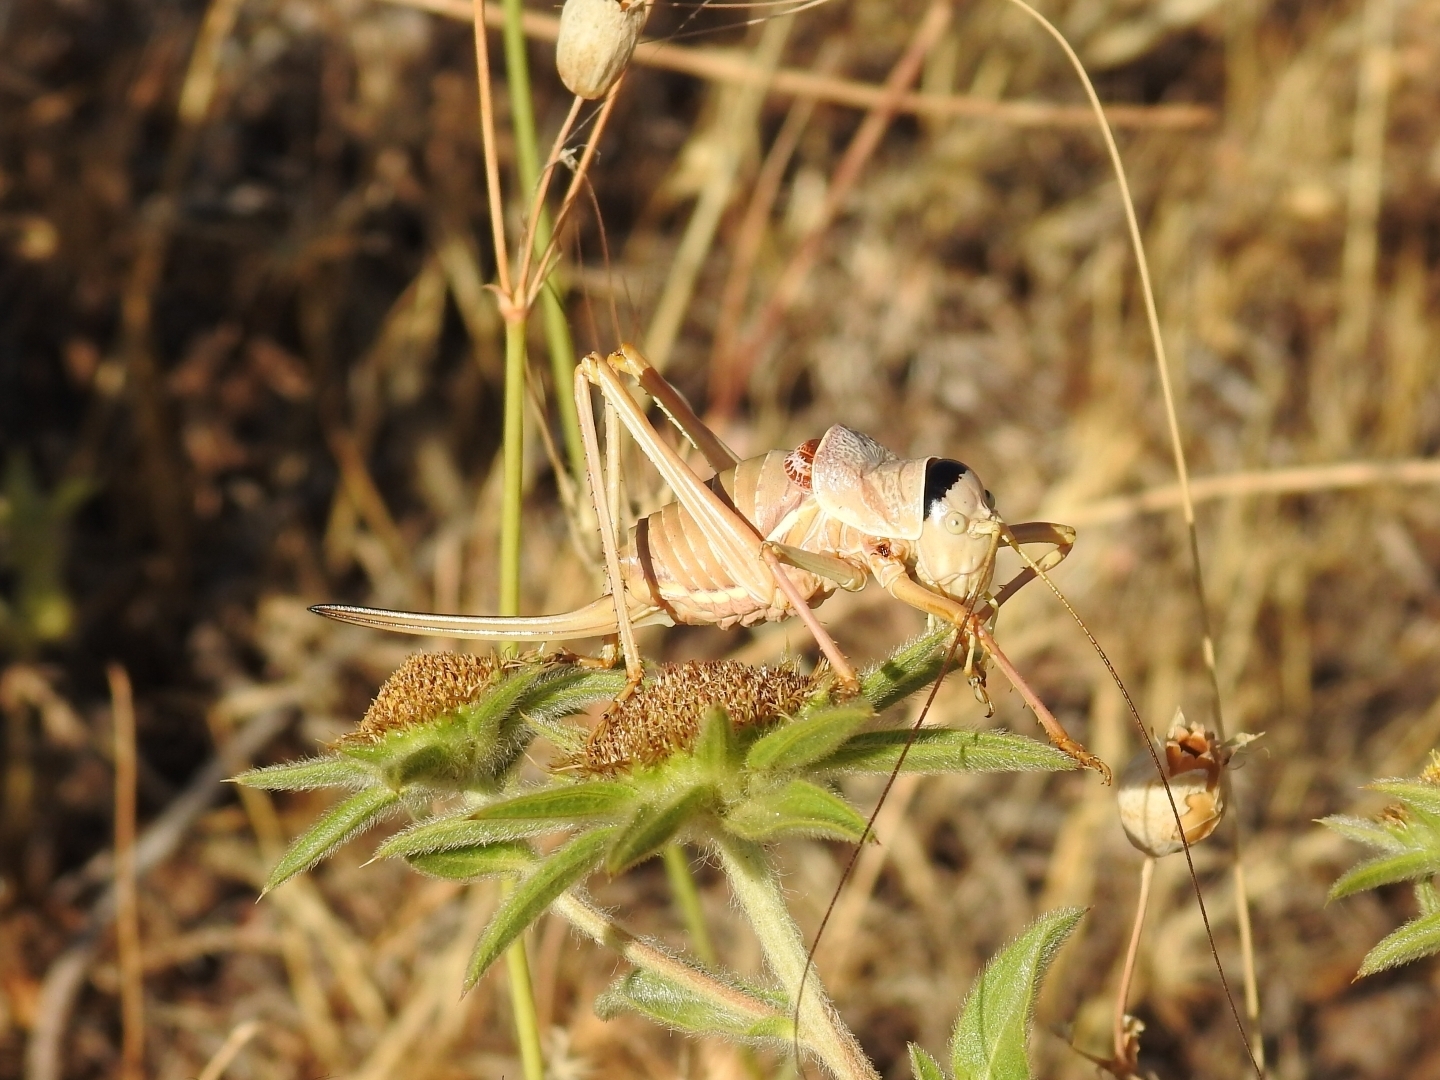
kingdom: Animalia
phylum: Arthropoda
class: Insecta
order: Orthoptera
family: Tettigoniidae
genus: Ephippiger
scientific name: Ephippiger apulus
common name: Apulian saddle bush-cricket
